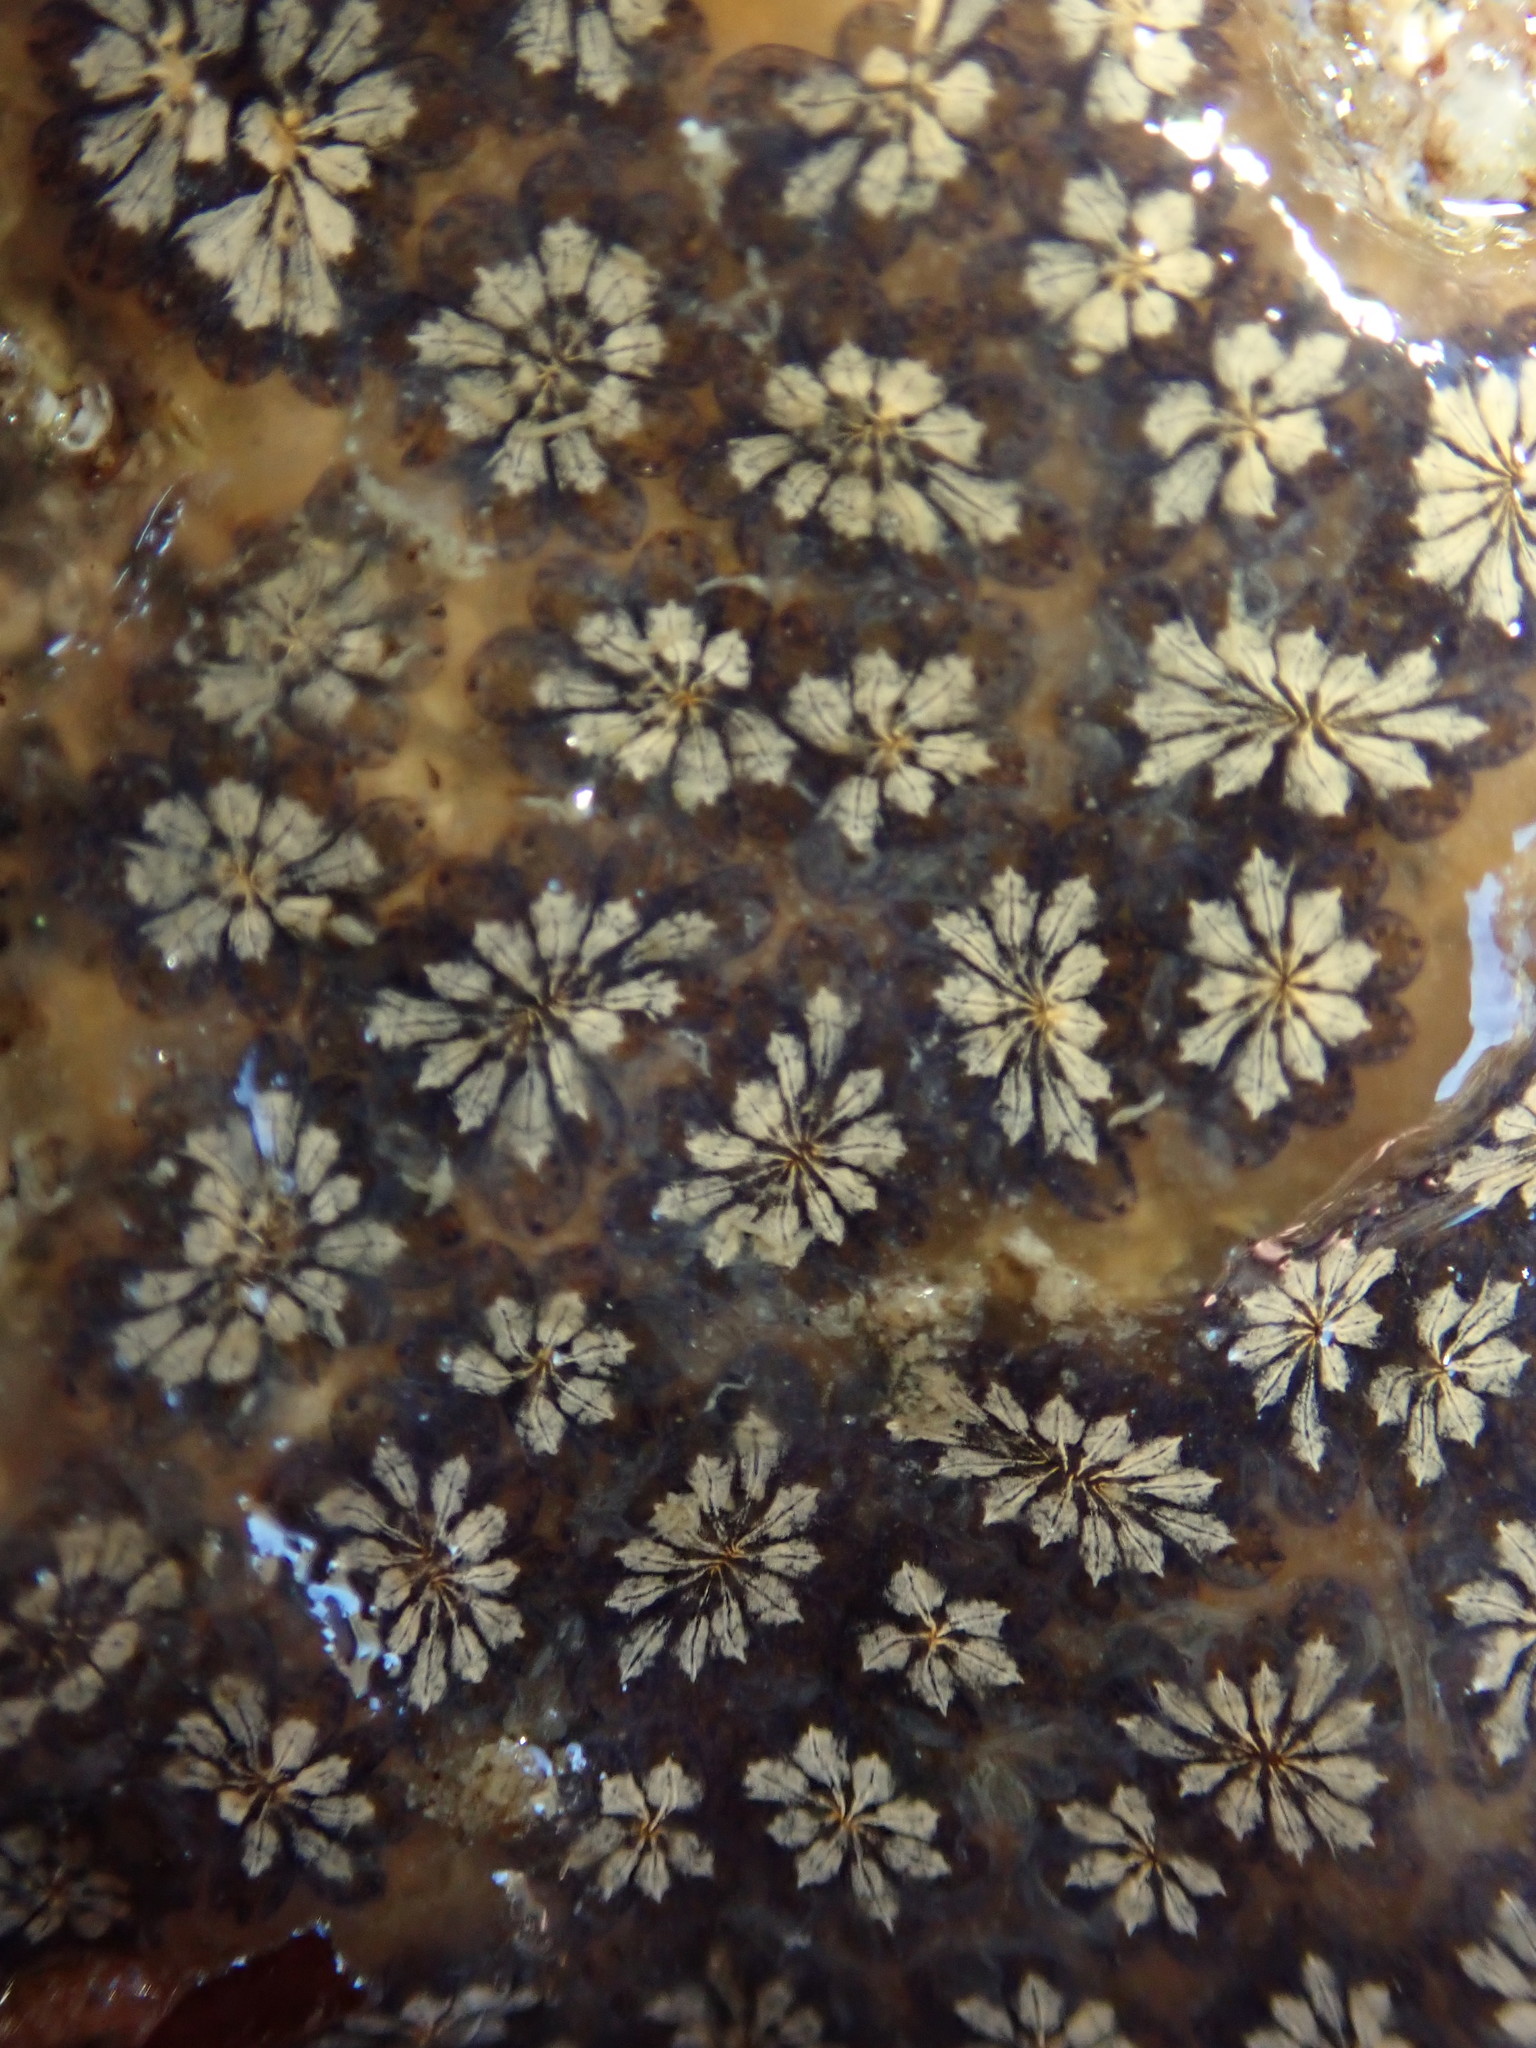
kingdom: Animalia
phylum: Chordata
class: Ascidiacea
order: Stolidobranchia
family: Styelidae
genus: Botryllus
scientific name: Botryllus schlosseri
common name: Golden star tunicate
